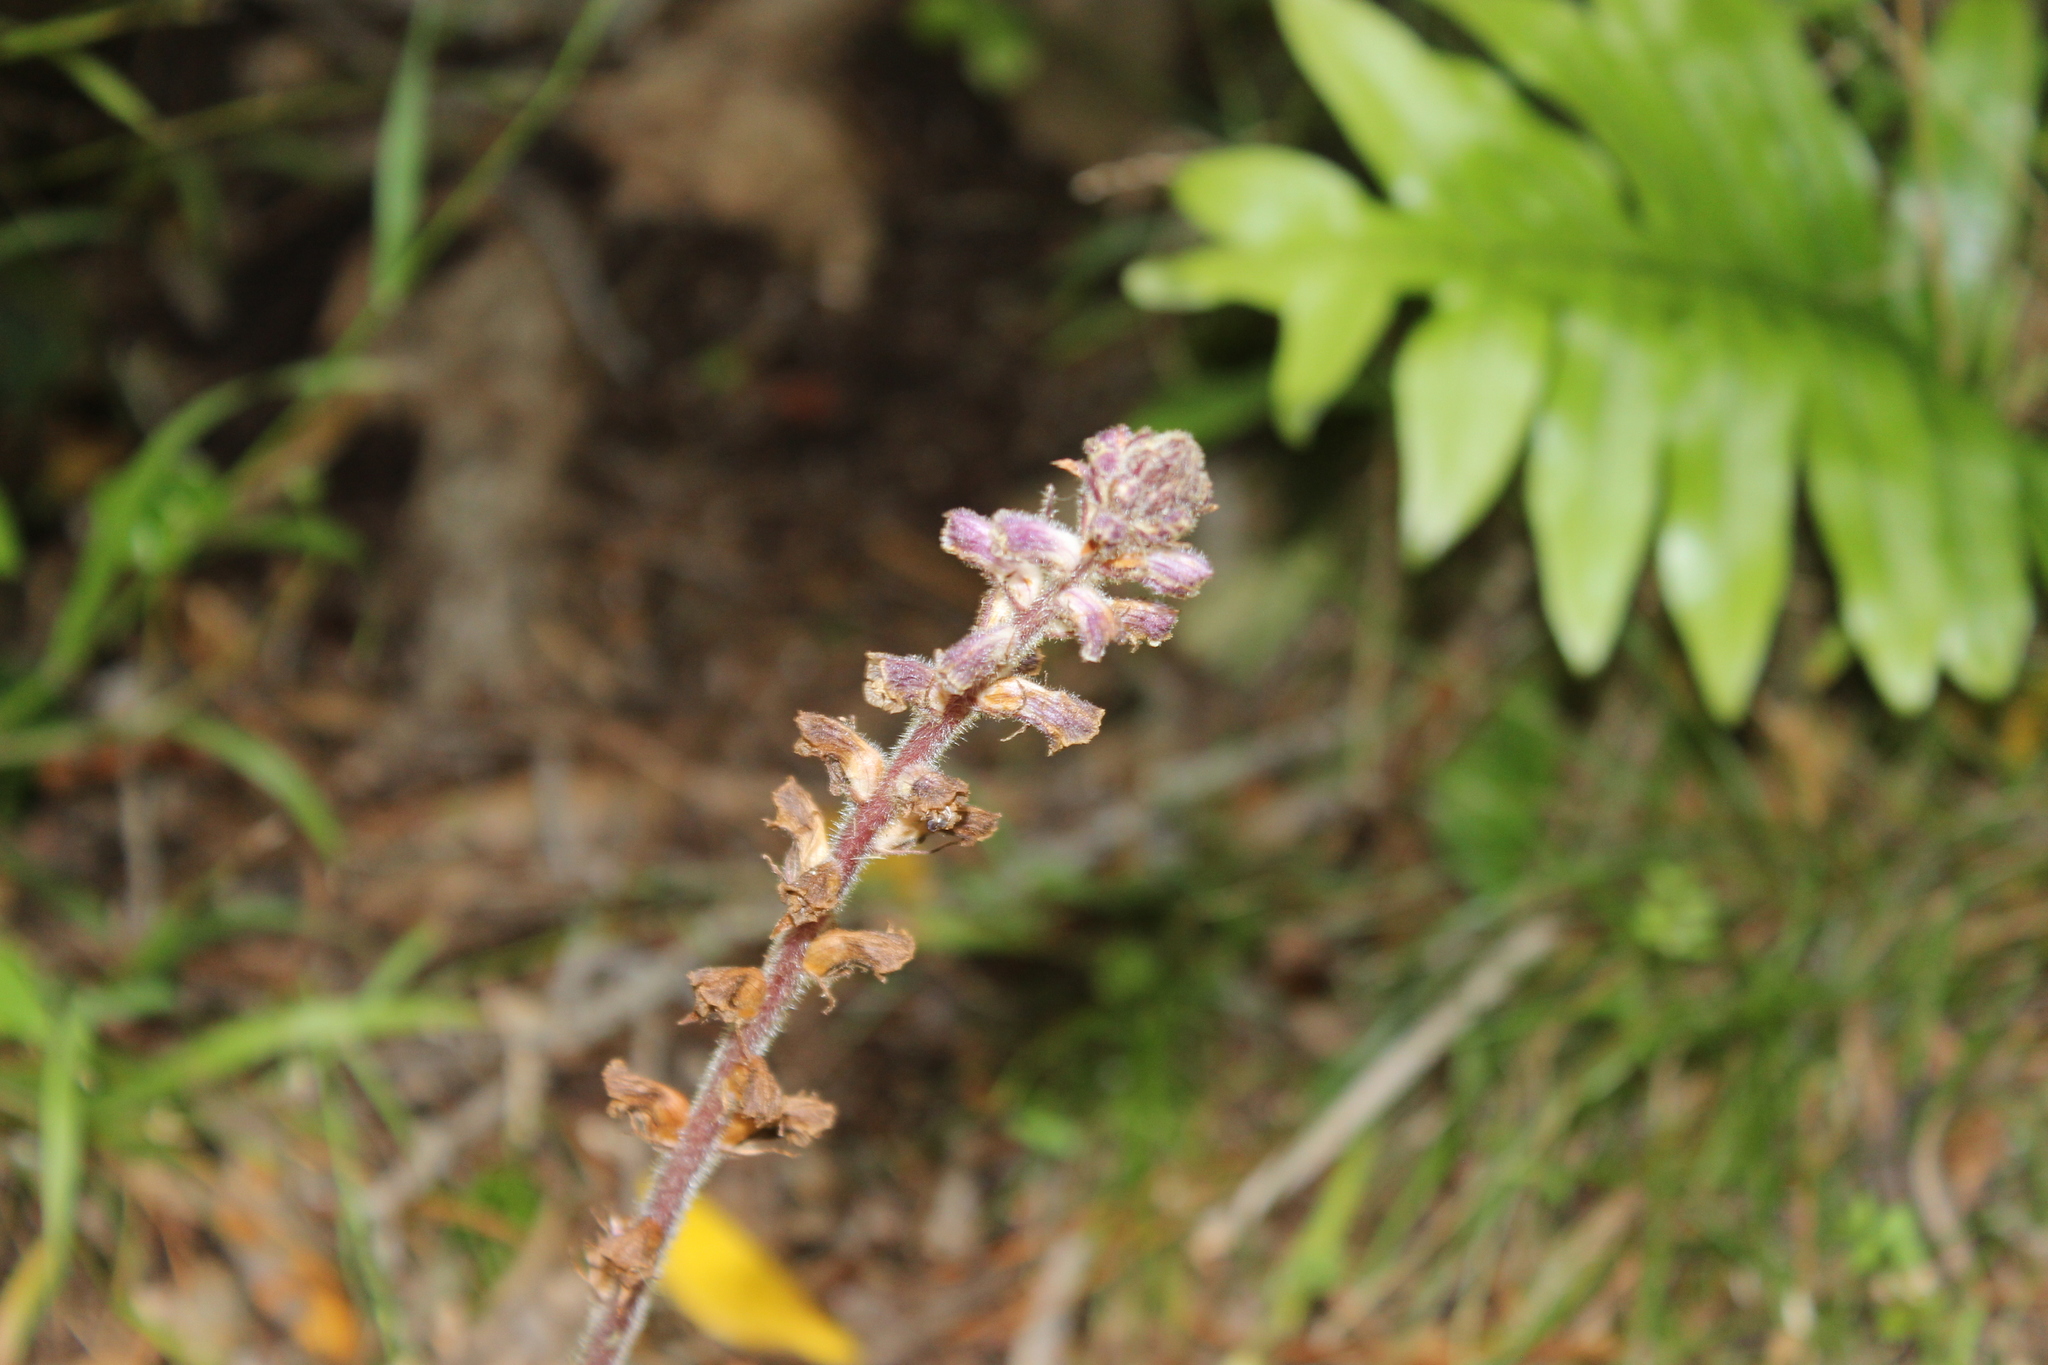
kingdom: Plantae
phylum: Tracheophyta
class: Magnoliopsida
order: Lamiales
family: Orobanchaceae
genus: Orobanche
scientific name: Orobanche minor
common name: Common broomrape
